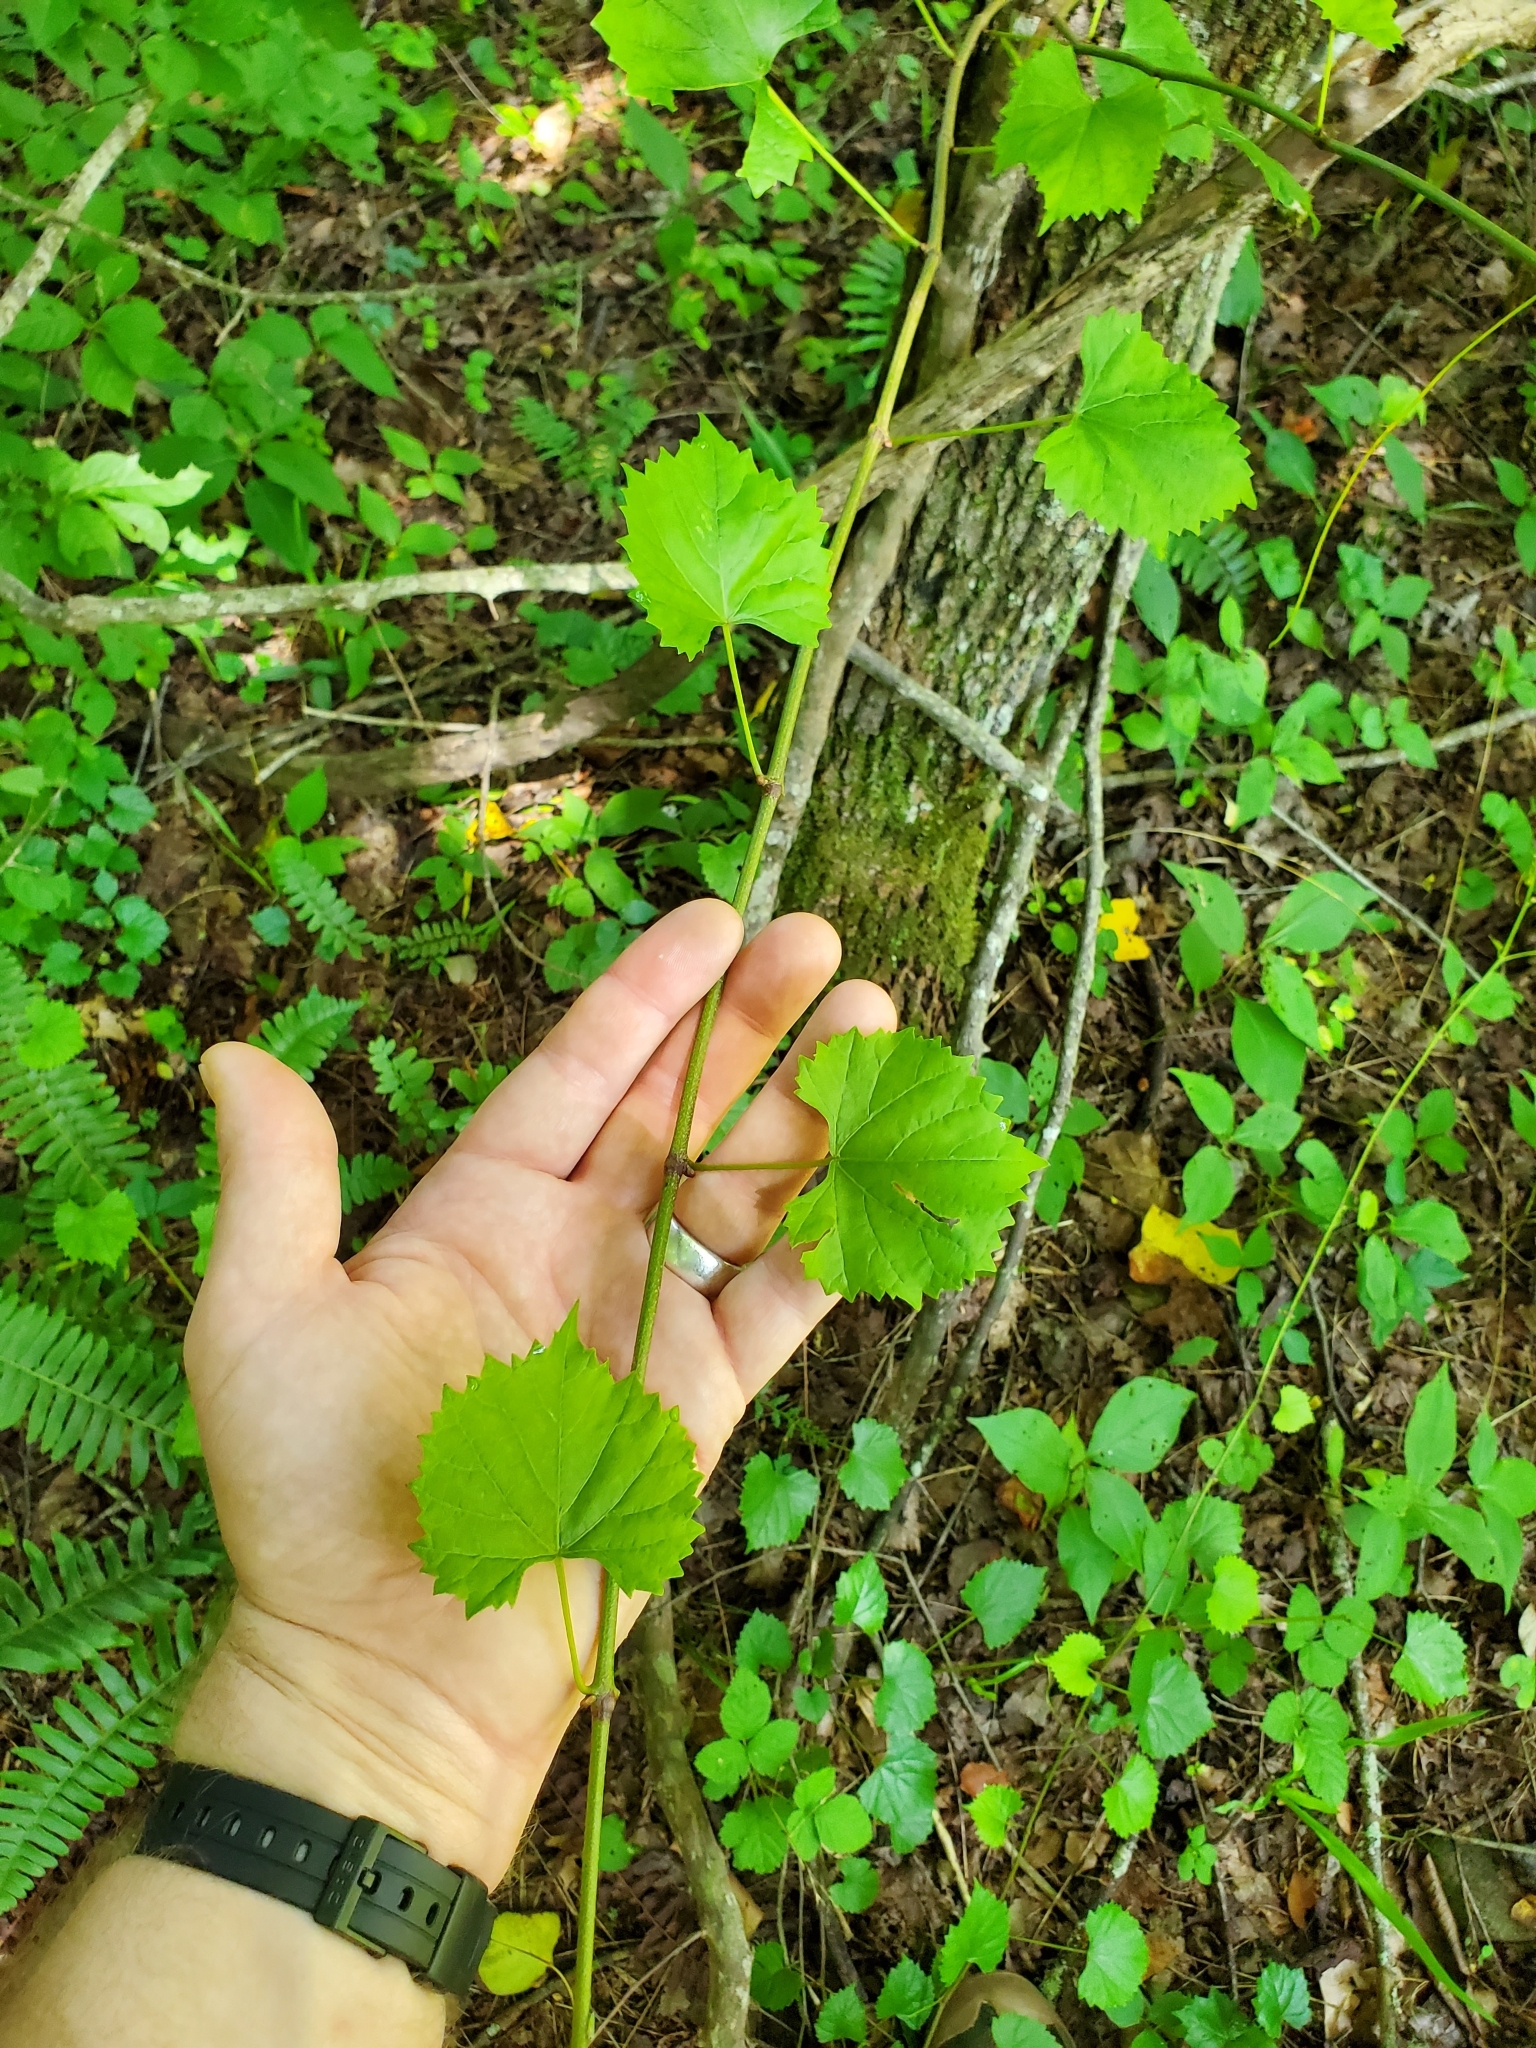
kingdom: Plantae
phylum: Tracheophyta
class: Magnoliopsida
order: Vitales
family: Vitaceae
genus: Vitis
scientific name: Vitis rotundifolia
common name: Muscadine grape
